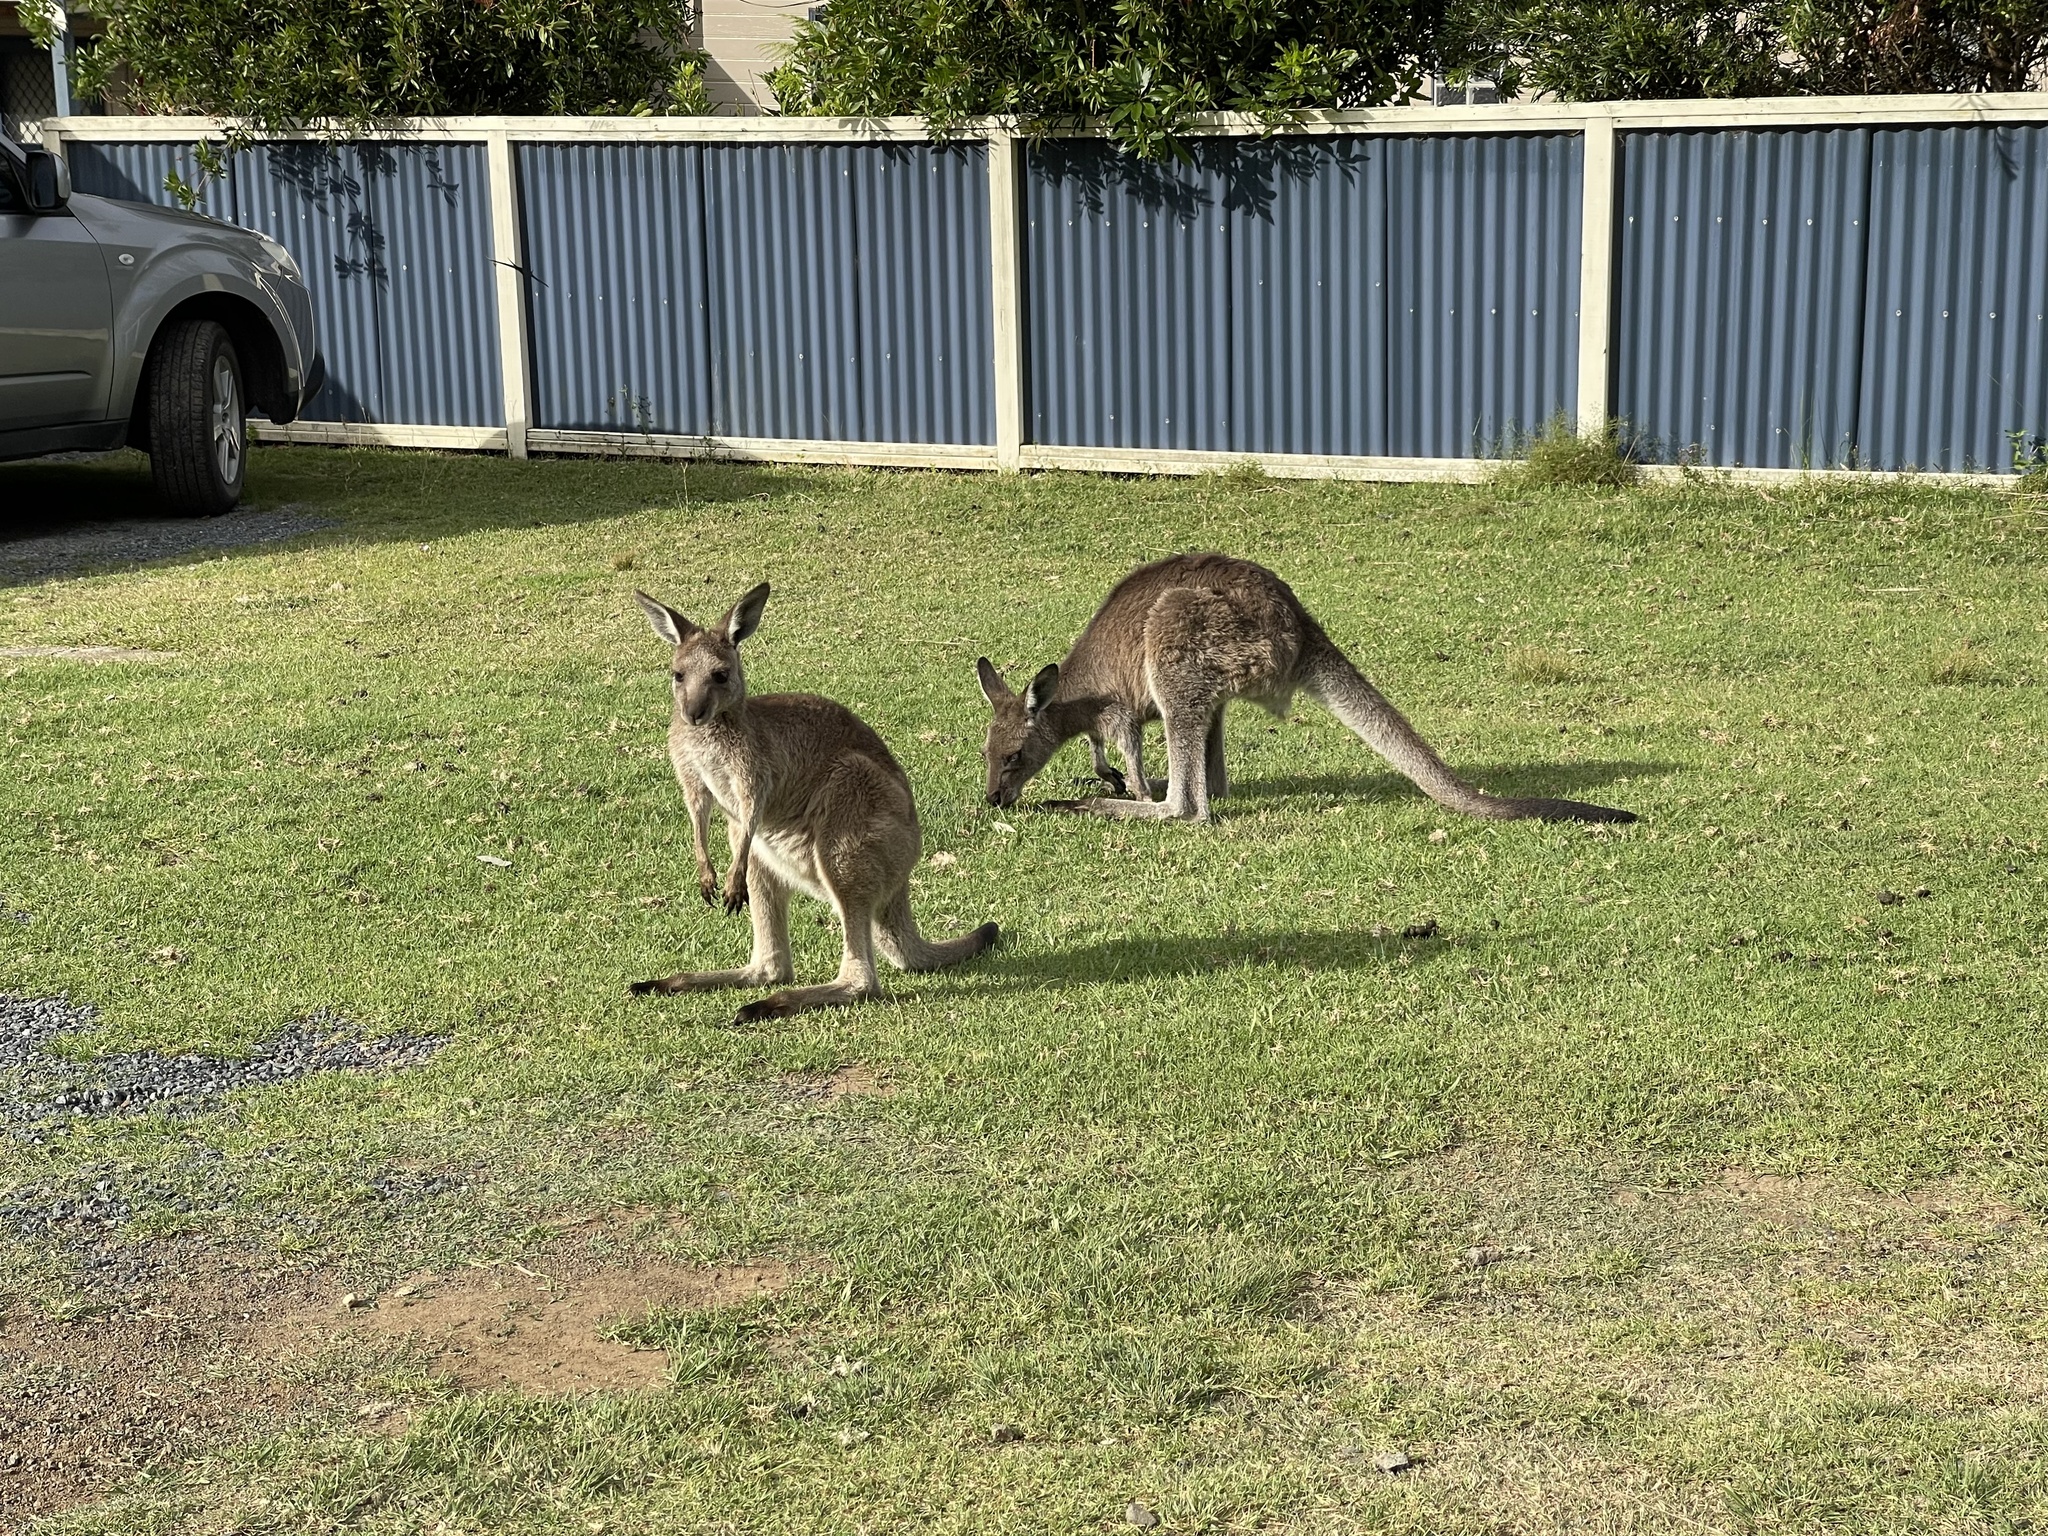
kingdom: Animalia
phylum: Chordata
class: Mammalia
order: Diprotodontia
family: Macropodidae
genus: Macropus
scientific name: Macropus giganteus
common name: Eastern grey kangaroo
